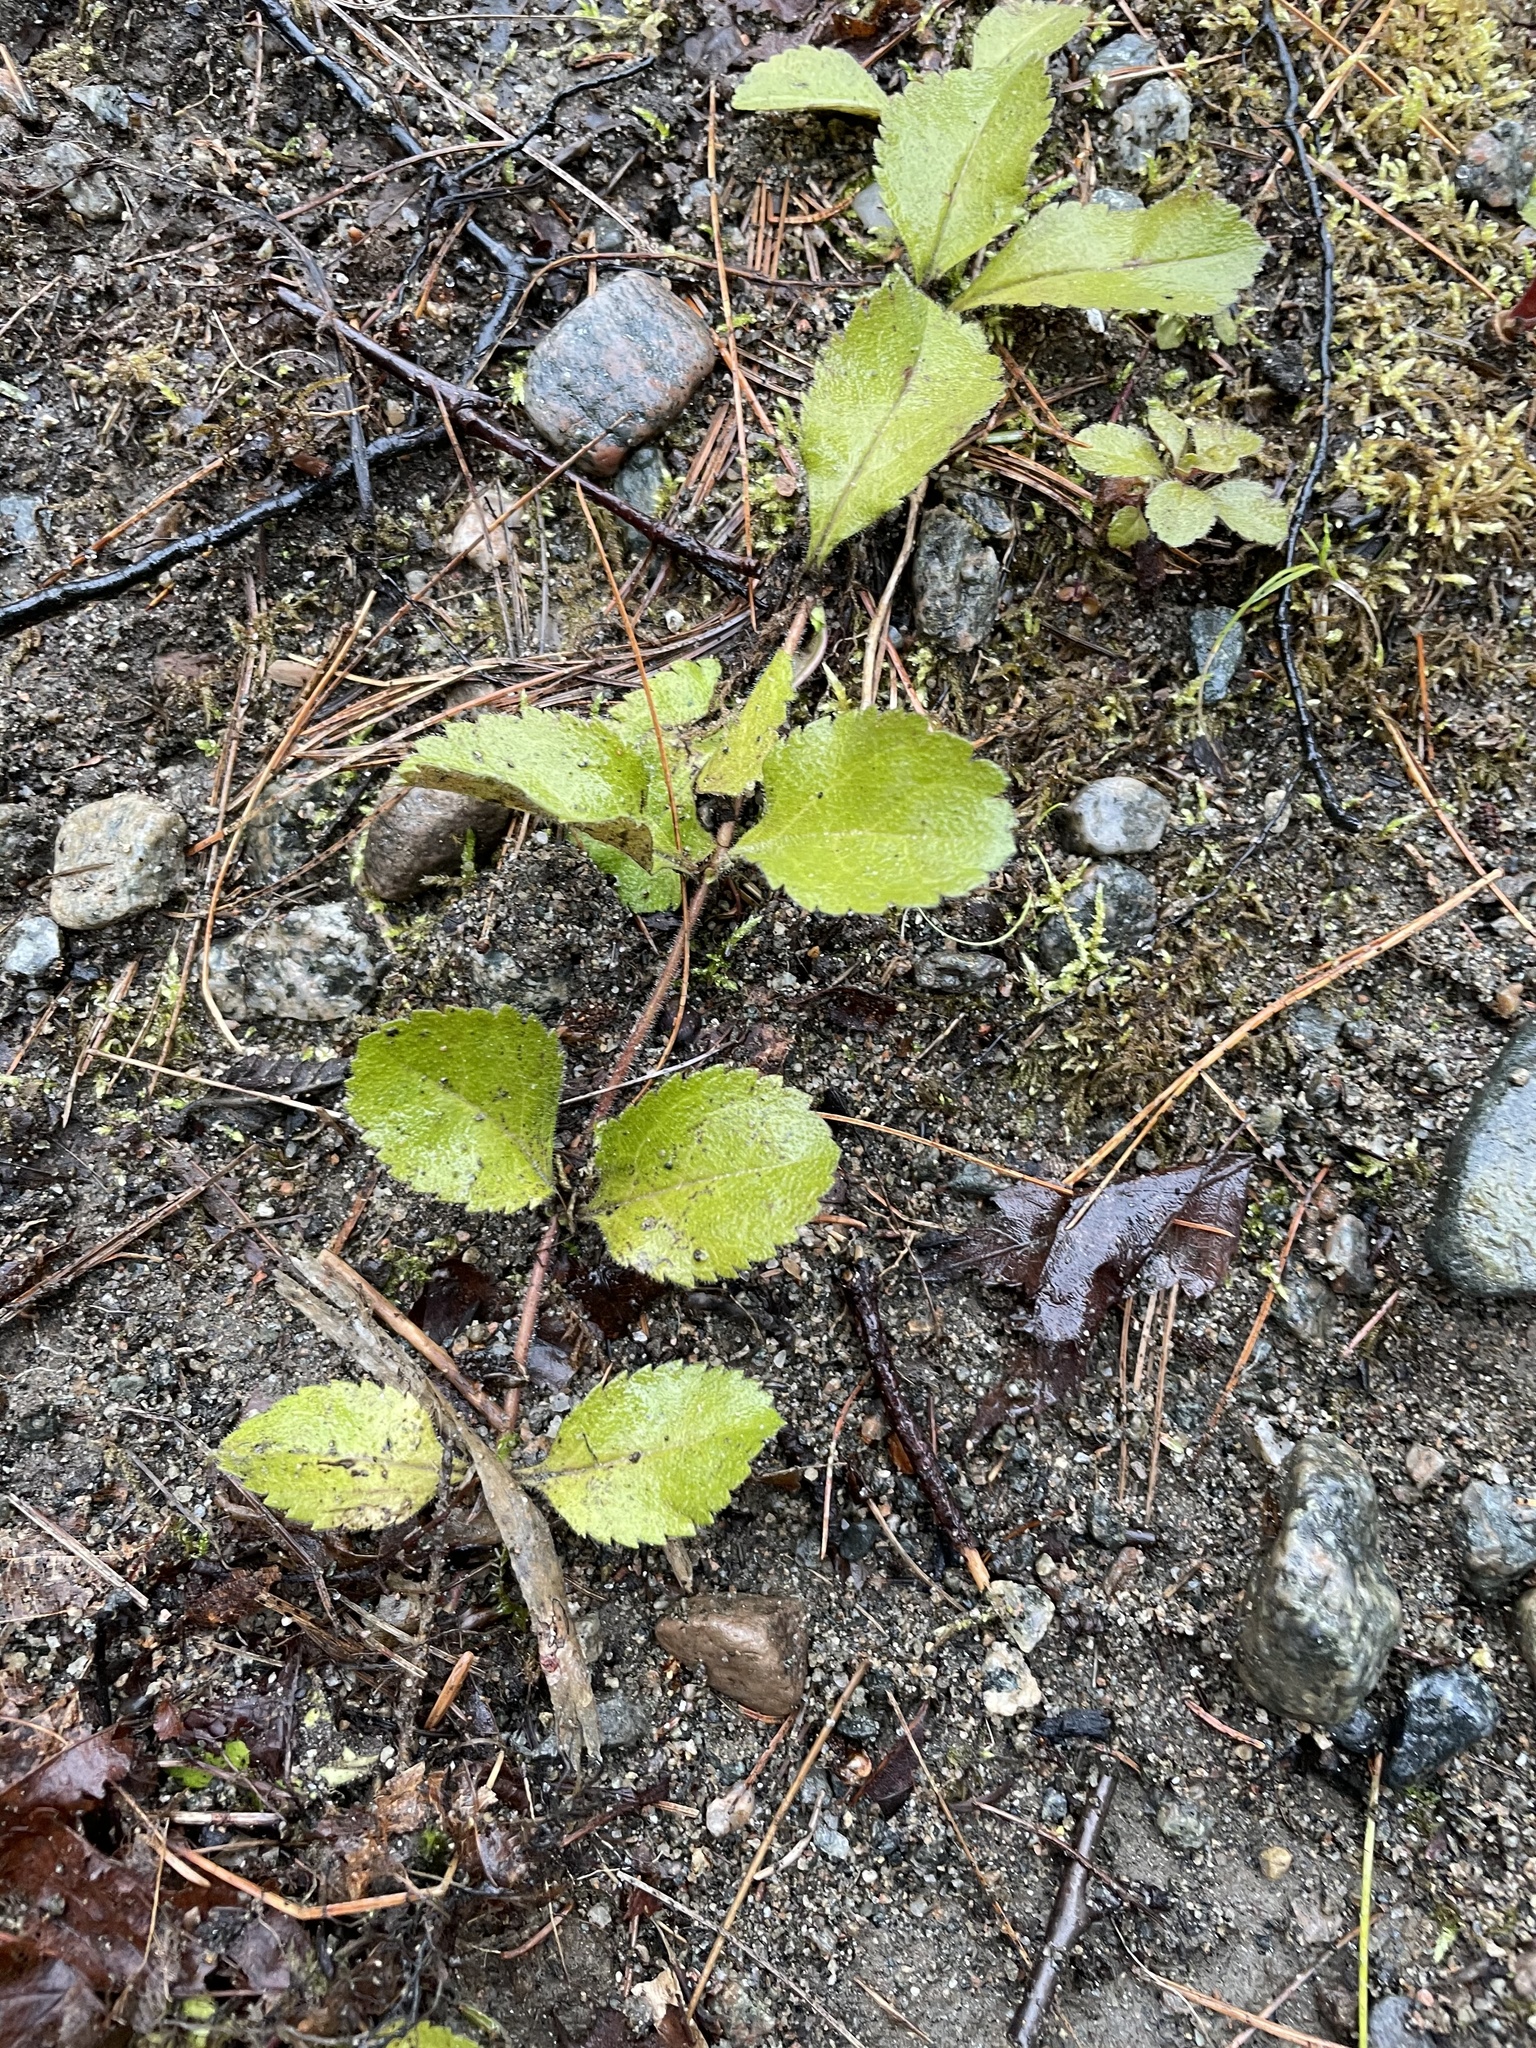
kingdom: Plantae
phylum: Tracheophyta
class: Magnoliopsida
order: Lamiales
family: Plantaginaceae
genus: Veronica
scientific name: Veronica officinalis
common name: Common speedwell
